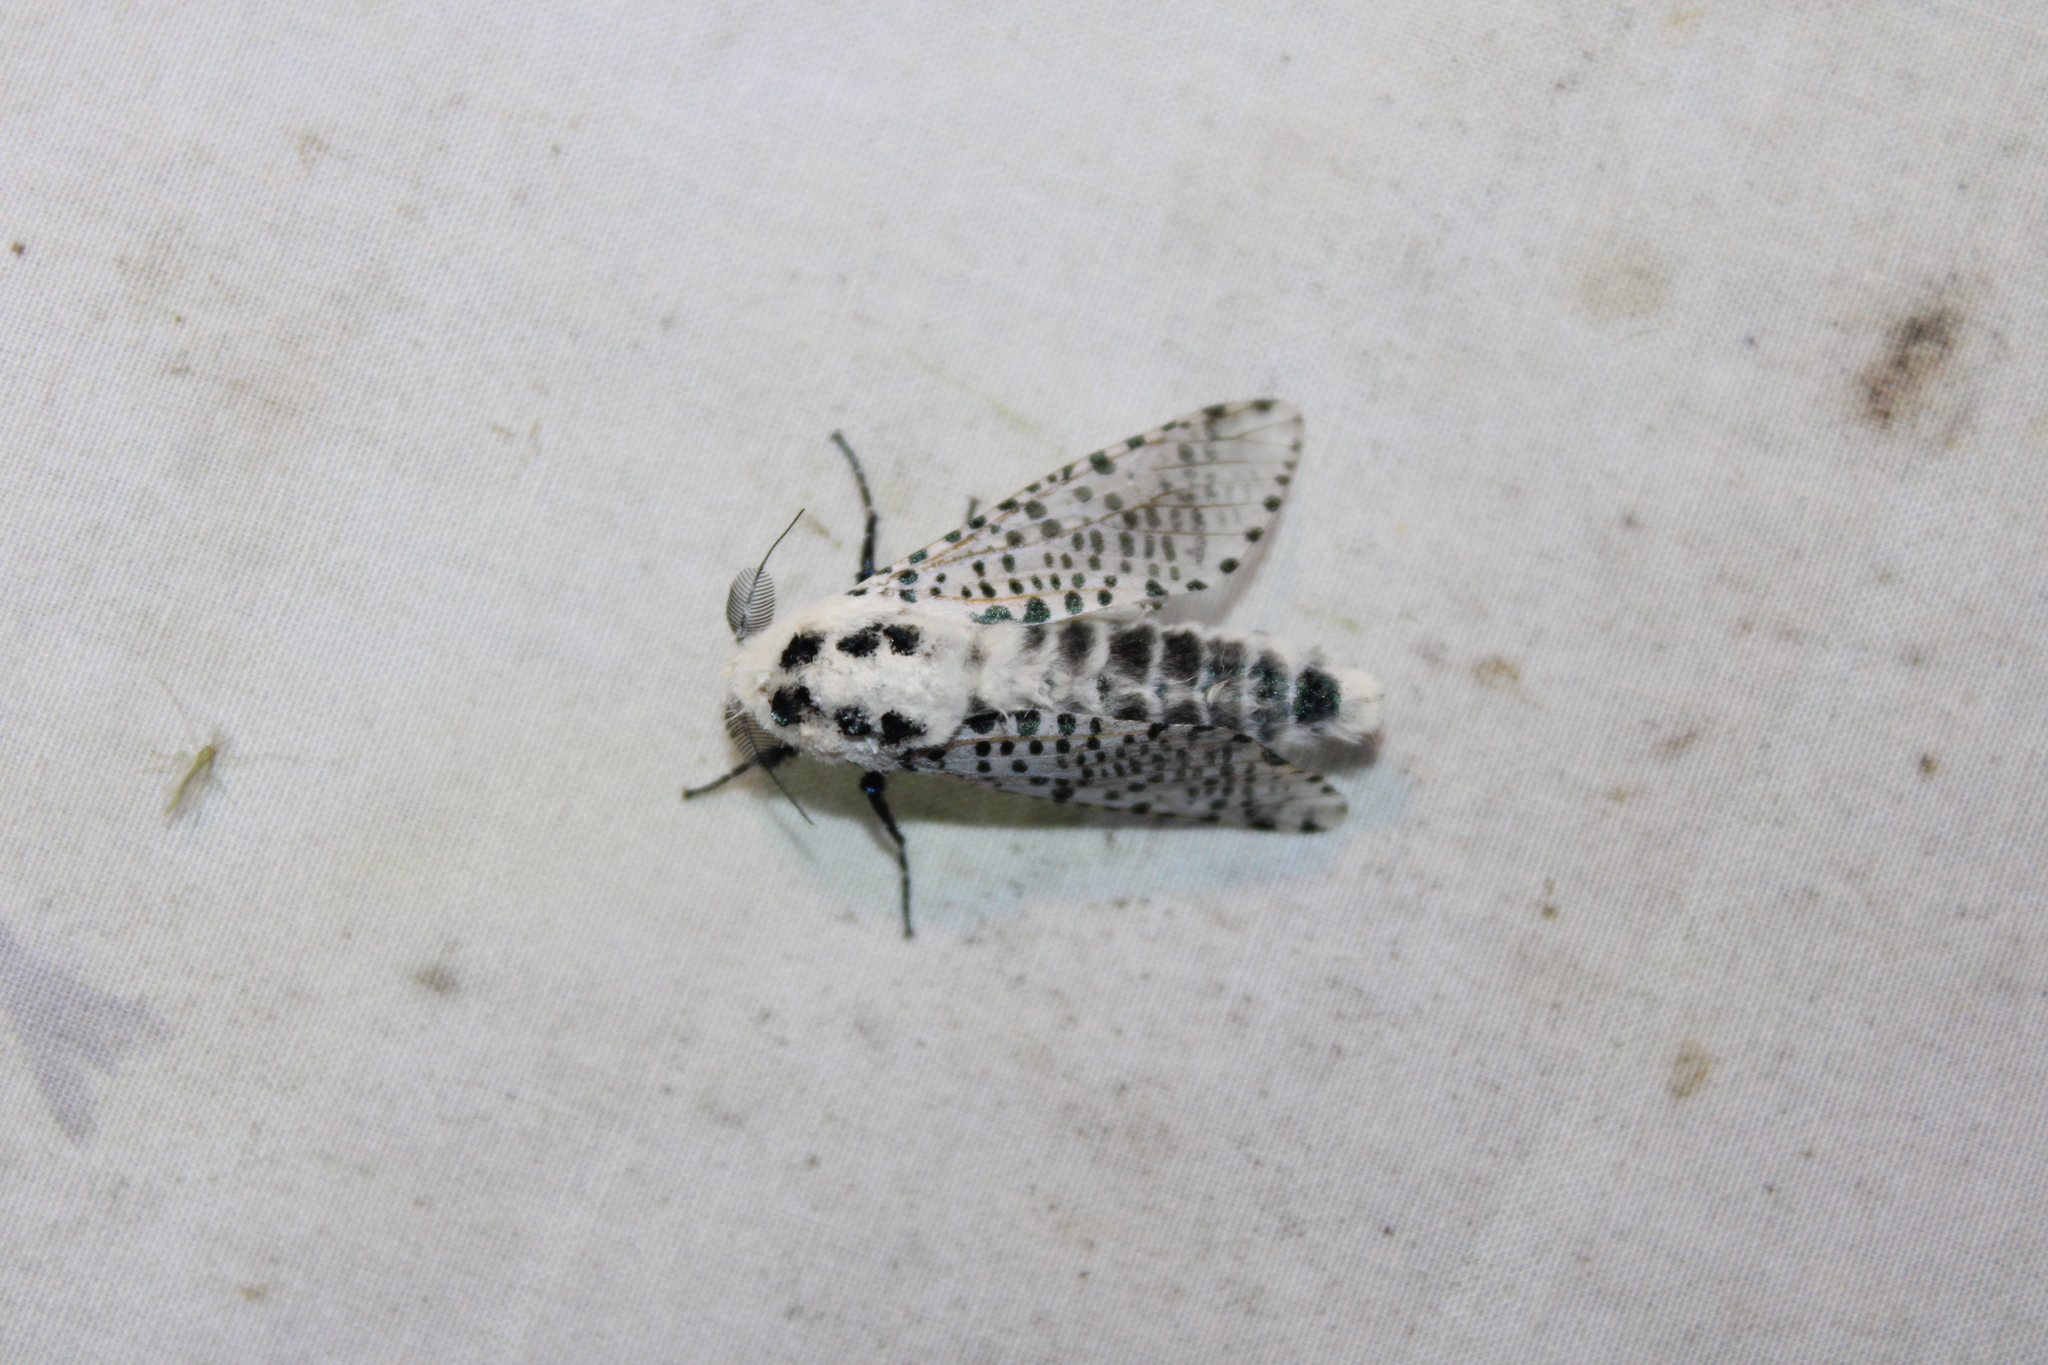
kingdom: Animalia
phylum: Arthropoda
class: Insecta
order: Lepidoptera
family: Cossidae
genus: Zeuzera
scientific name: Zeuzera pyrina
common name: Leopard moth
